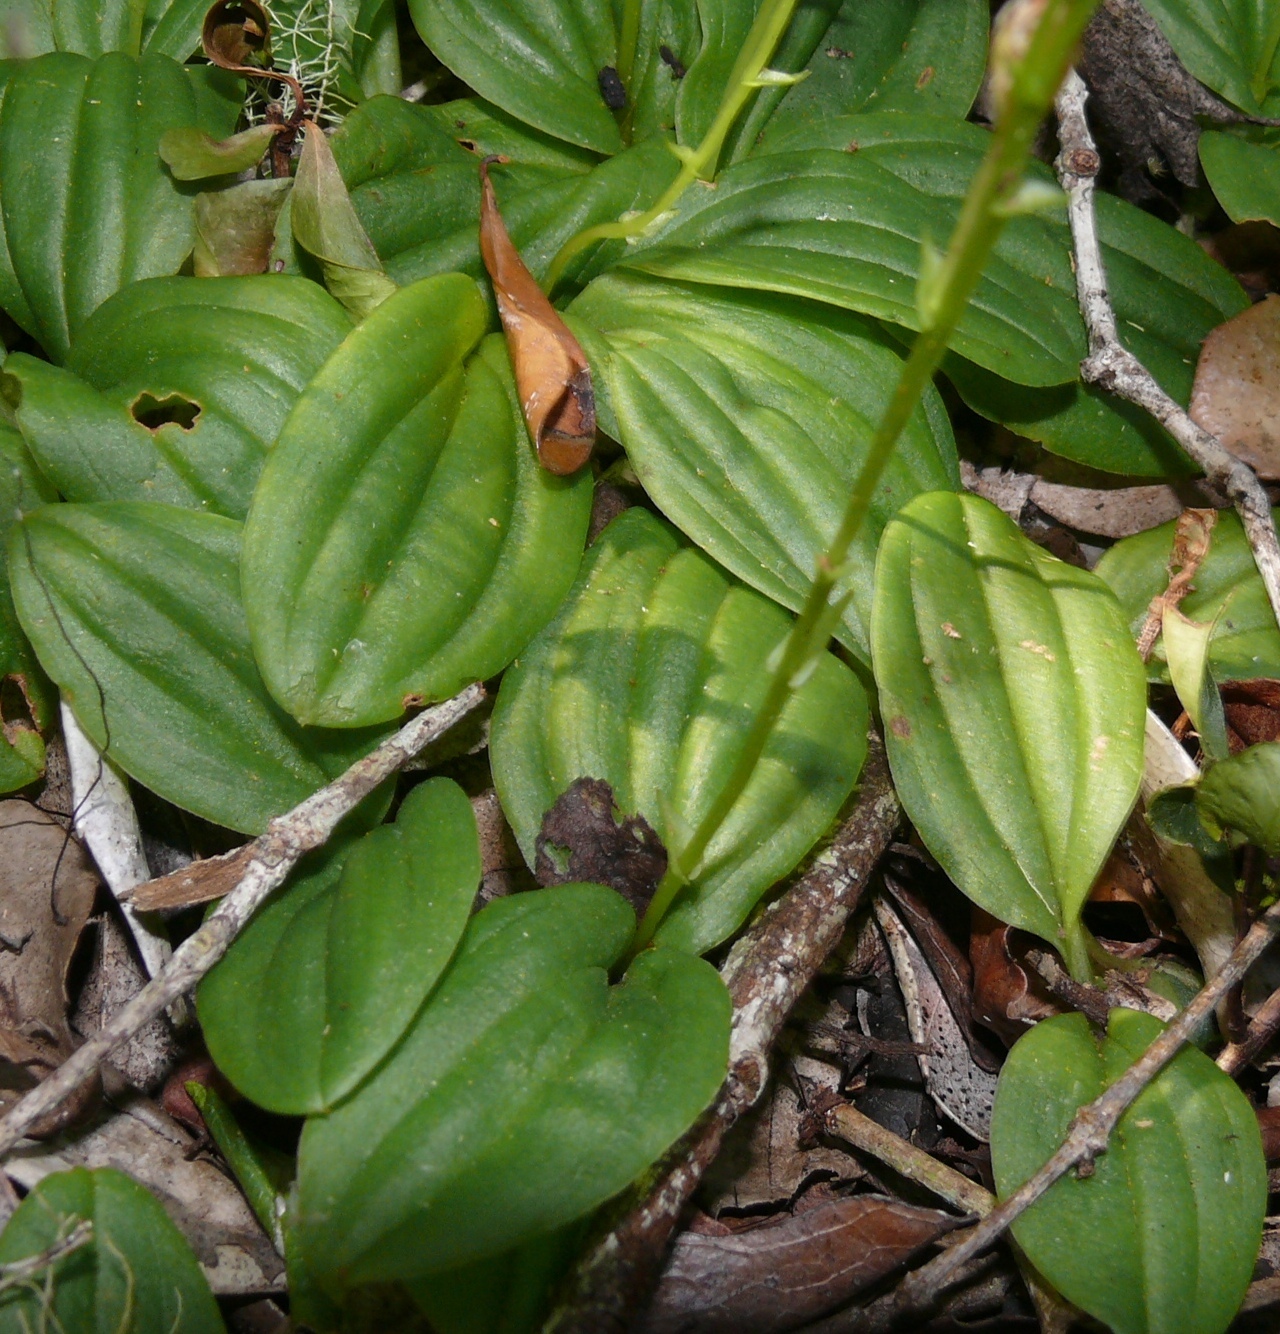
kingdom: Plantae
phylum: Tracheophyta
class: Liliopsida
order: Asparagales
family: Orchidaceae
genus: Liparis
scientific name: Liparis remota
